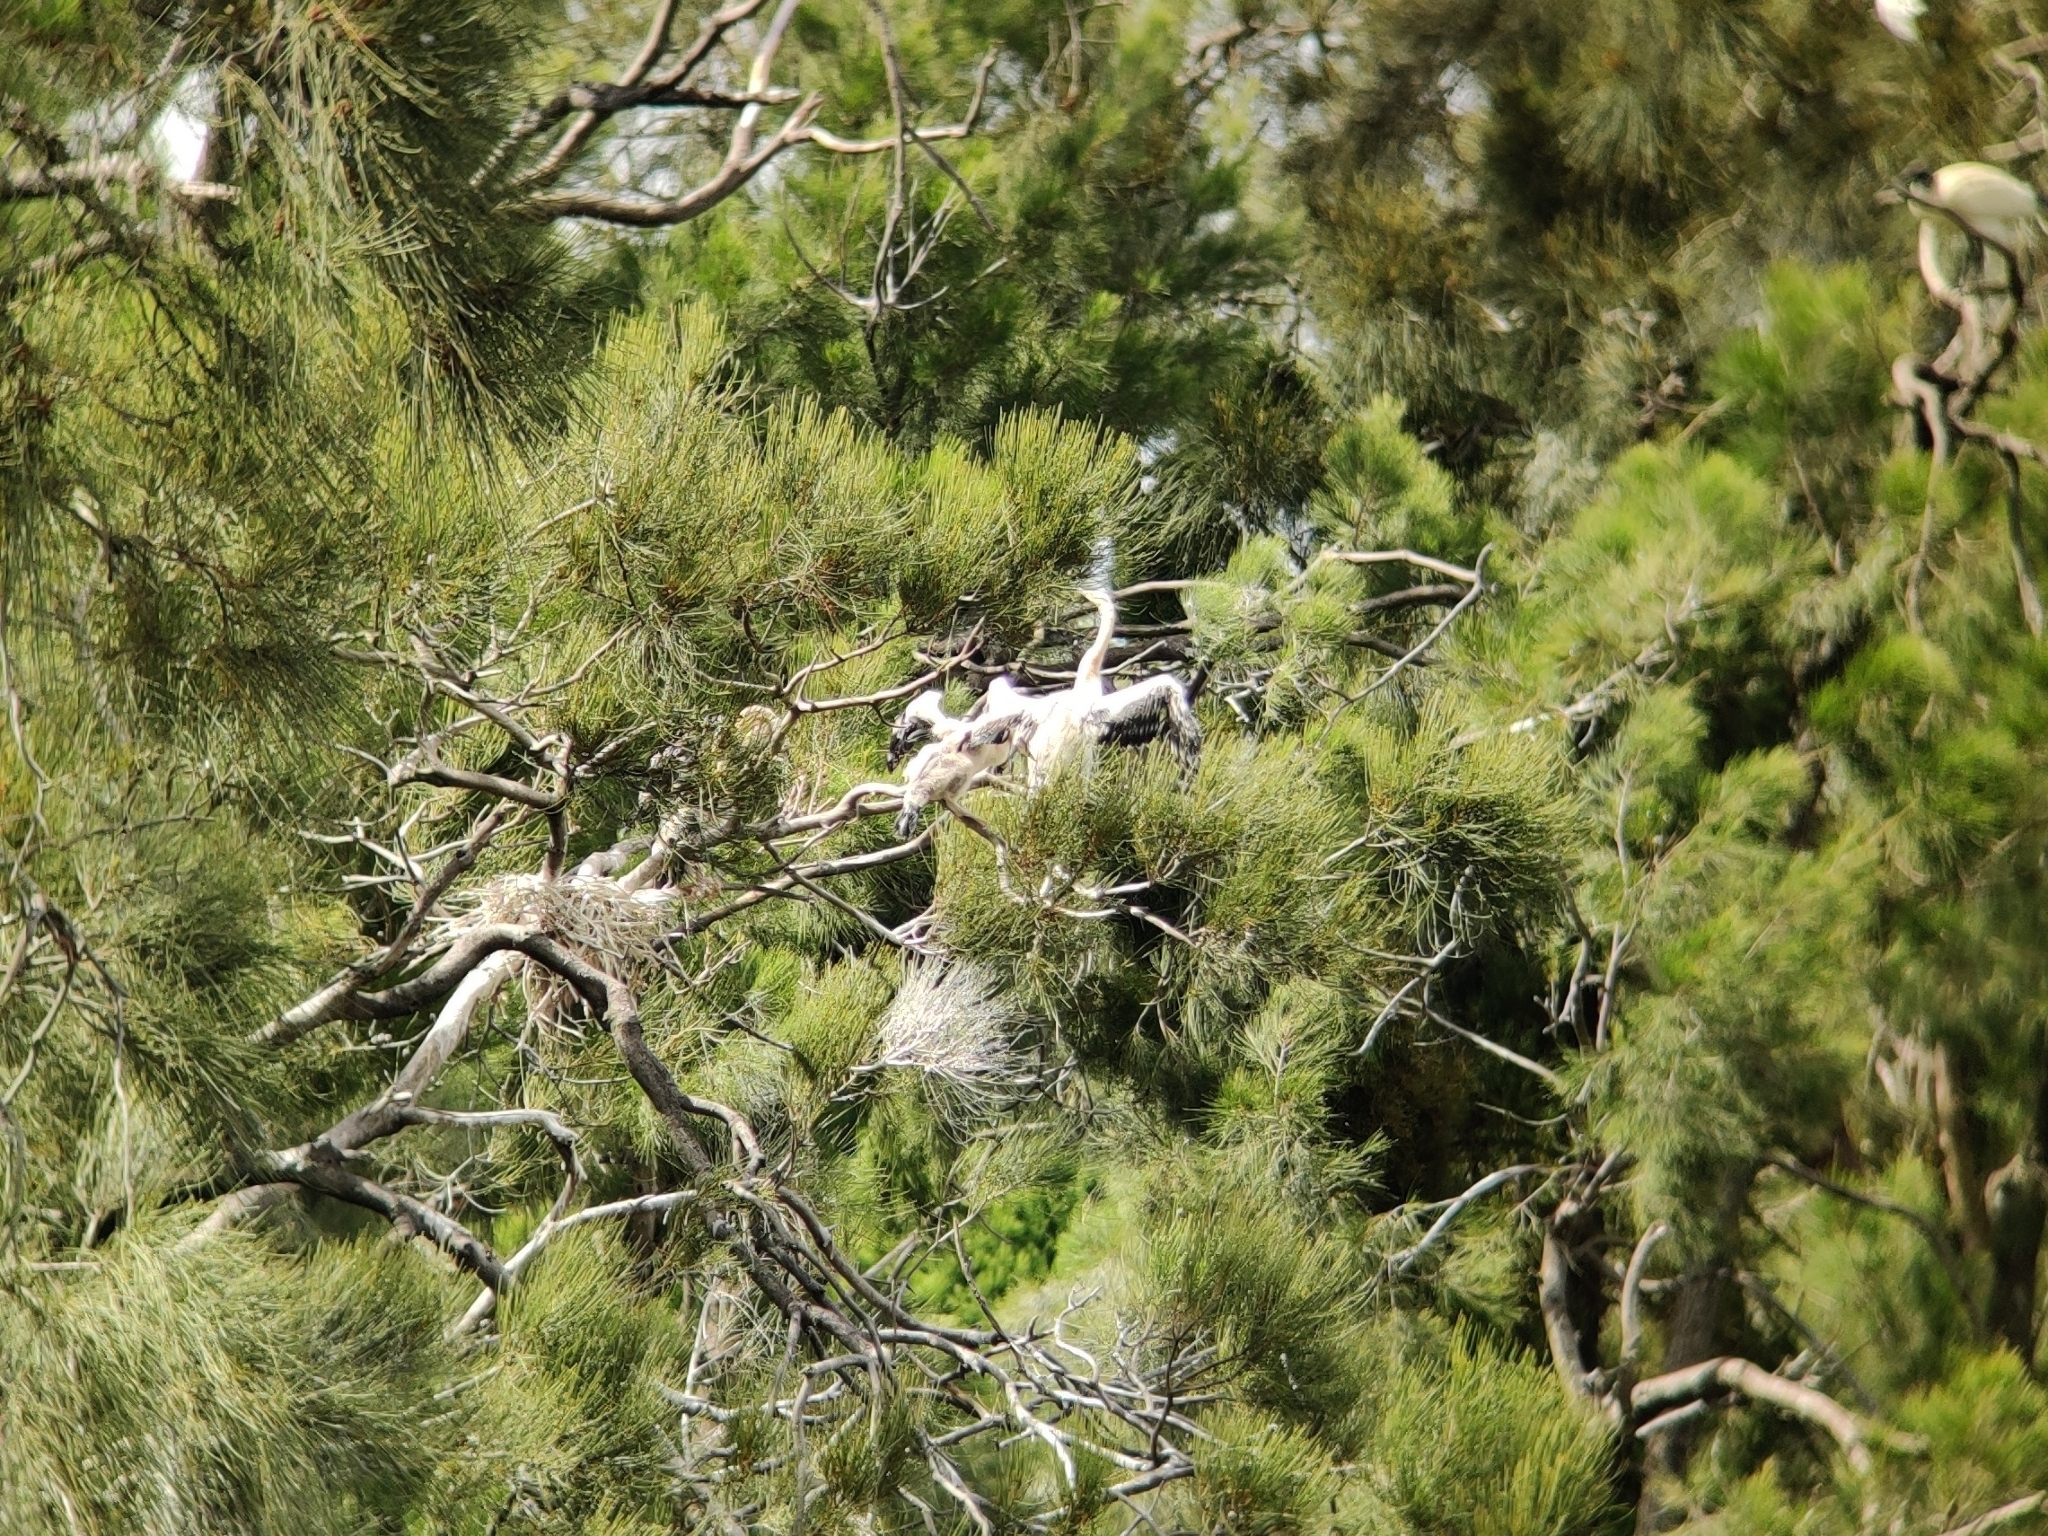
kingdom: Animalia
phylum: Chordata
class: Aves
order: Suliformes
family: Anhingidae
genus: Anhinga
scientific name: Anhinga novaehollandiae
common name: Australasian darter
